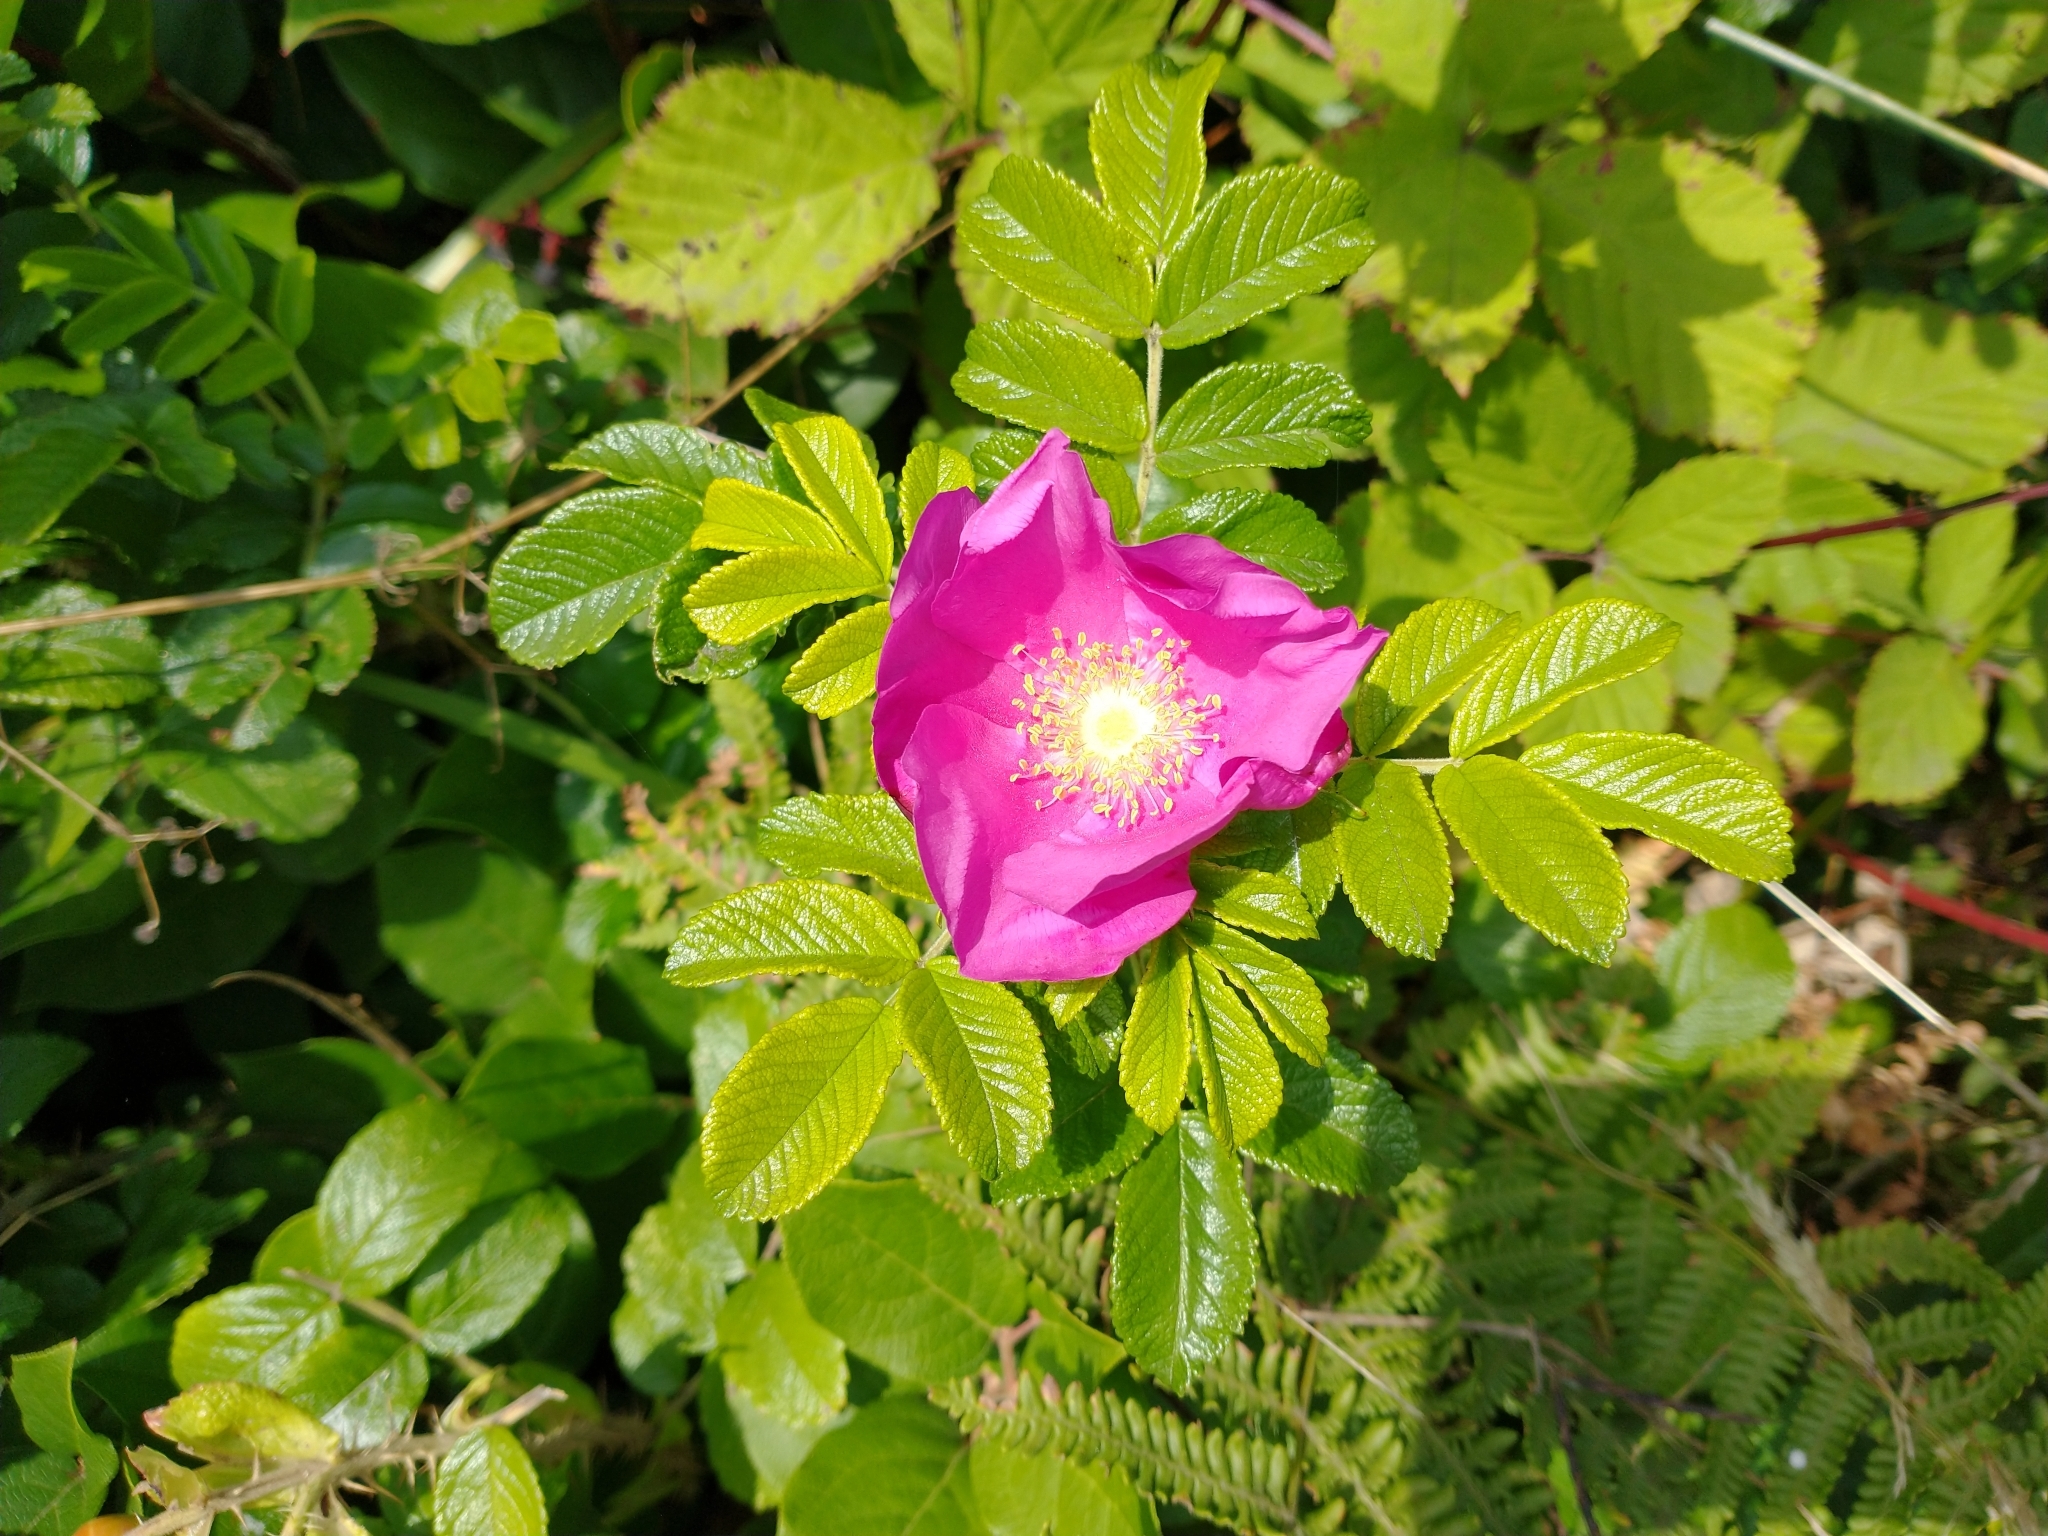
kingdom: Plantae
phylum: Tracheophyta
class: Magnoliopsida
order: Rosales
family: Rosaceae
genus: Rosa
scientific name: Rosa rugosa
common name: Japanese rose
